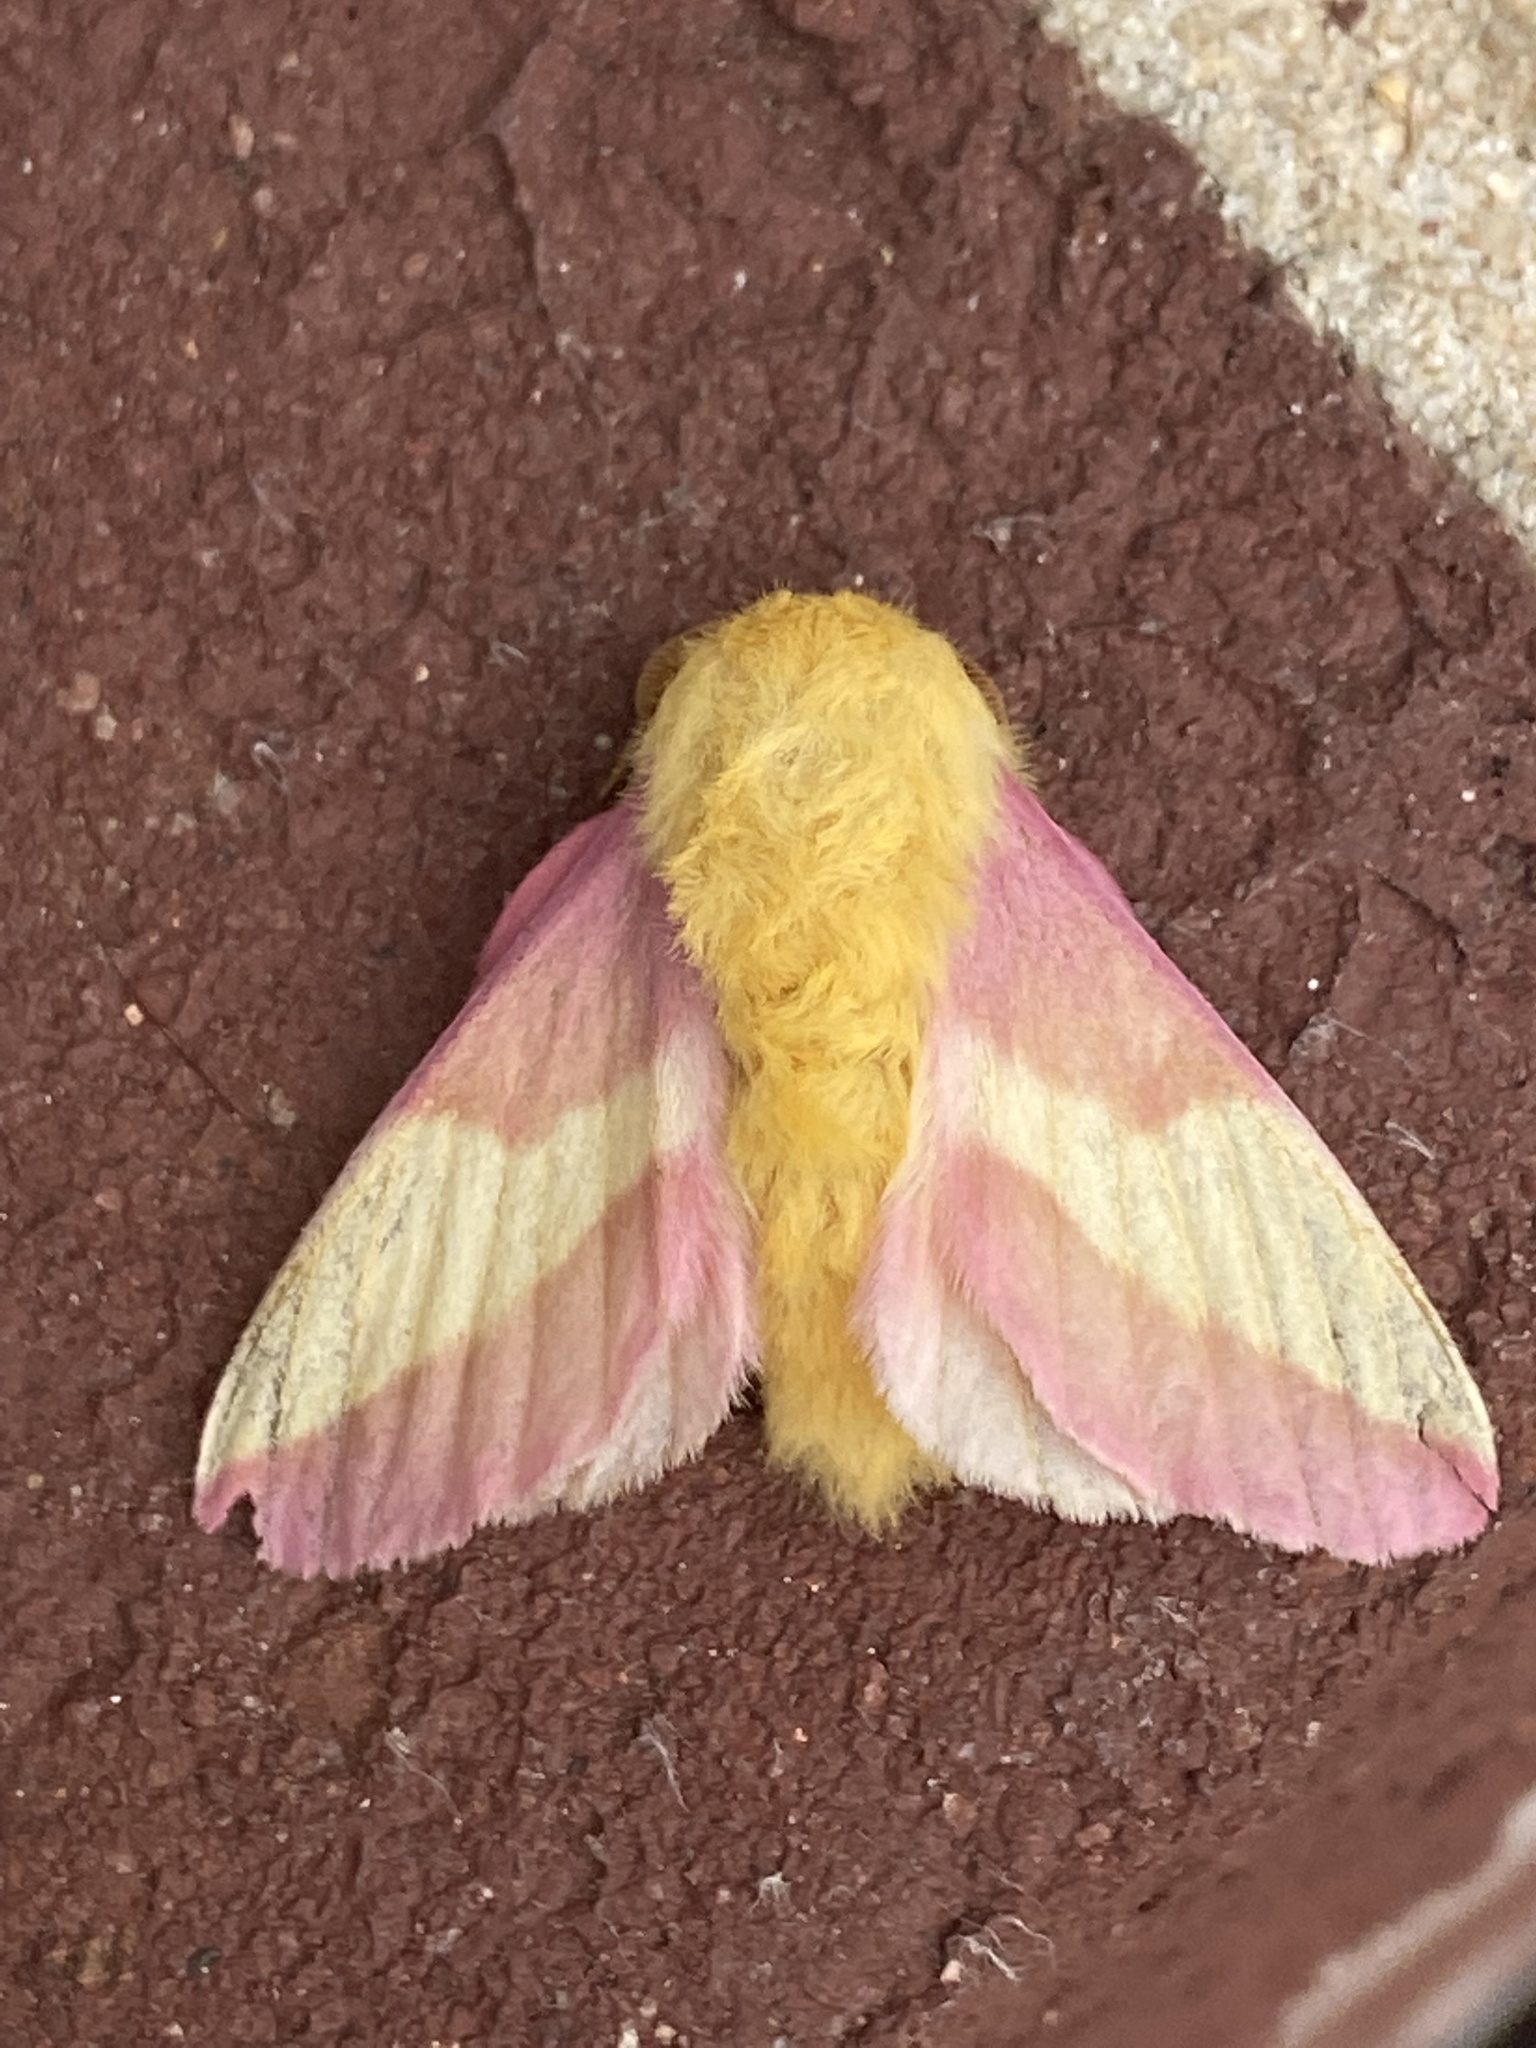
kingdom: Animalia
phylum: Arthropoda
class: Insecta
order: Lepidoptera
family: Saturniidae
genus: Dryocampa
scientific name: Dryocampa rubicunda
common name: Rosy maple moth
